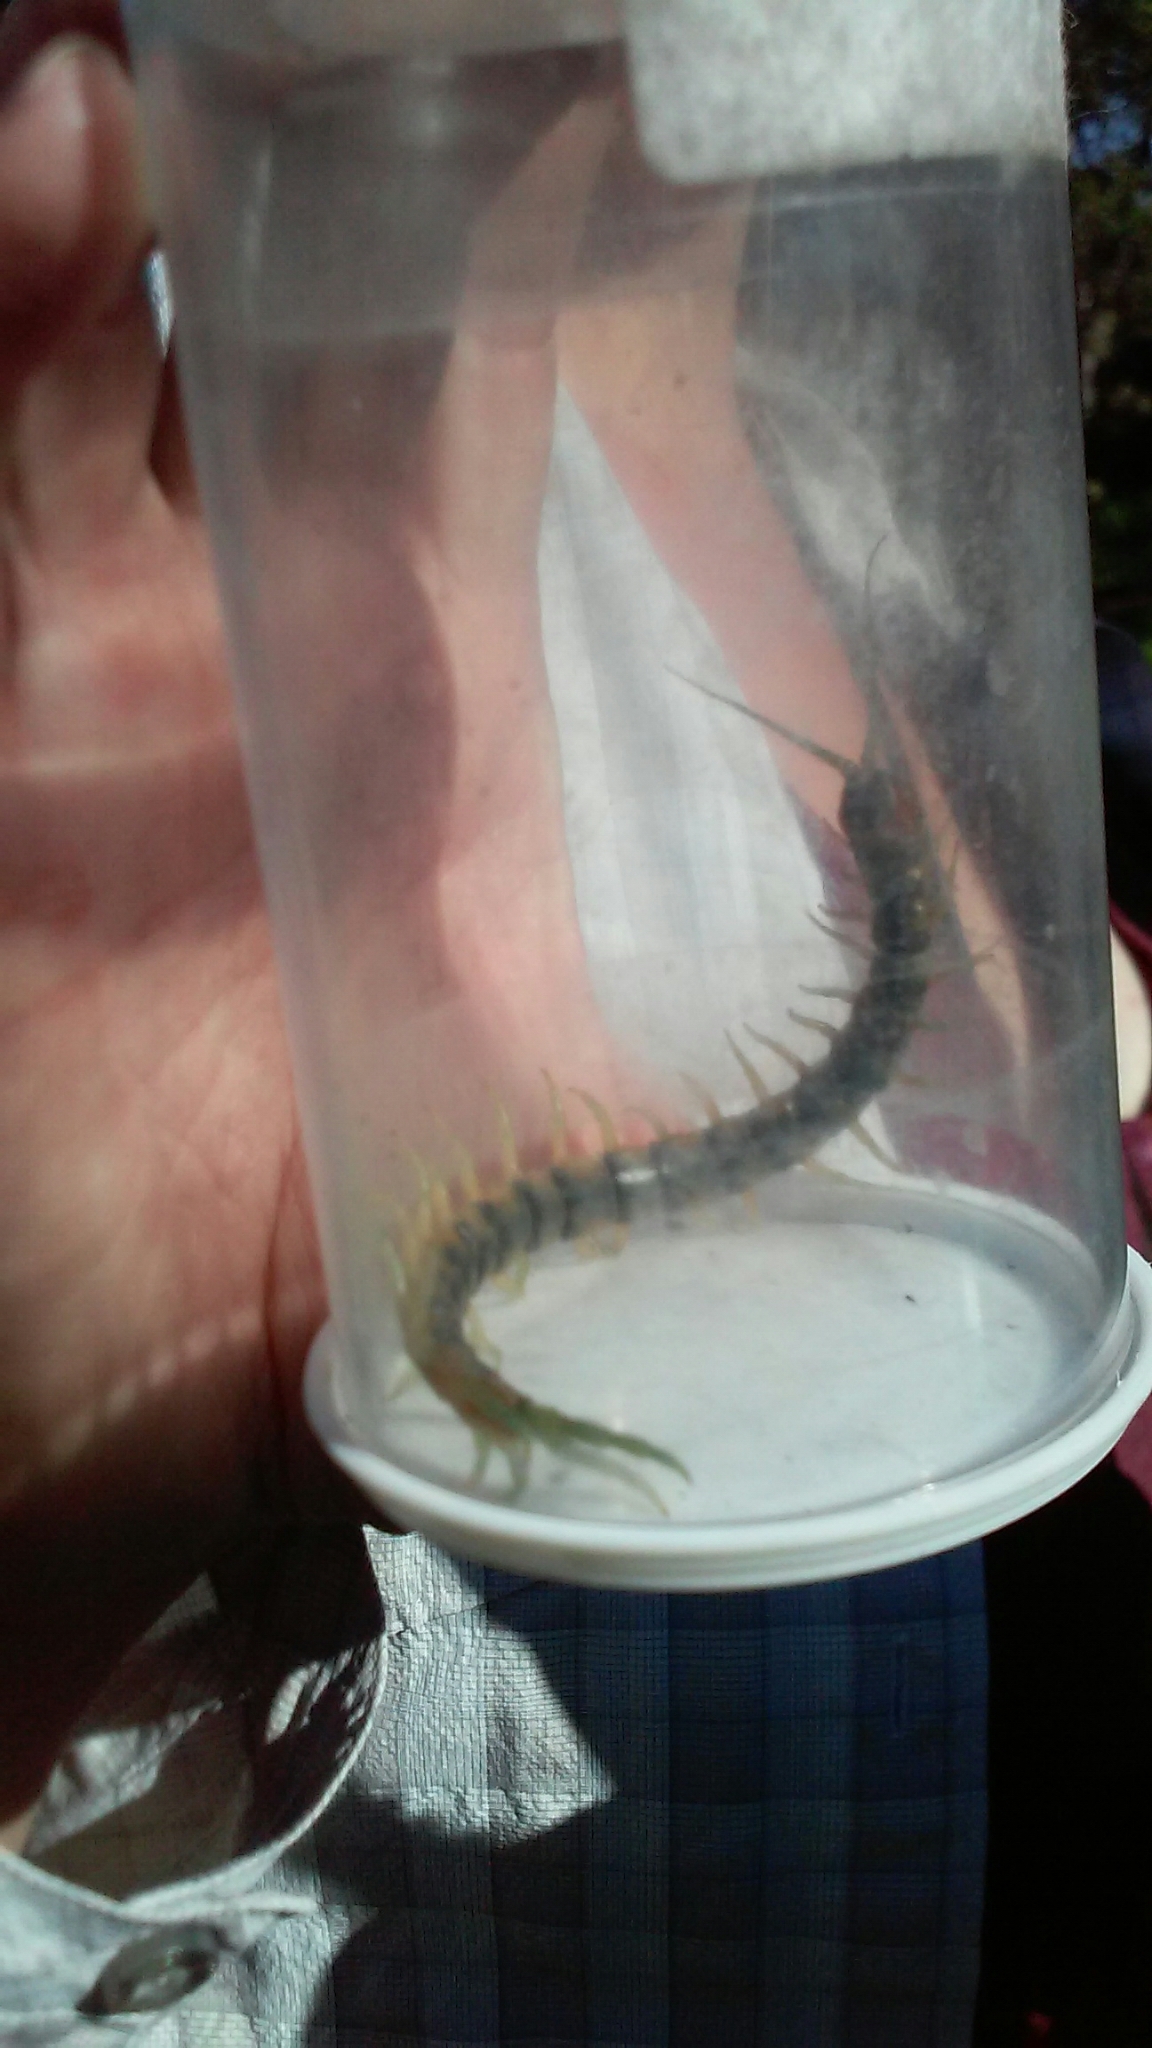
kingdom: Animalia
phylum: Arthropoda
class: Chilopoda
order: Scolopendromorpha
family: Scolopendridae
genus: Scolopendra
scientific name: Scolopendra polymorpha
